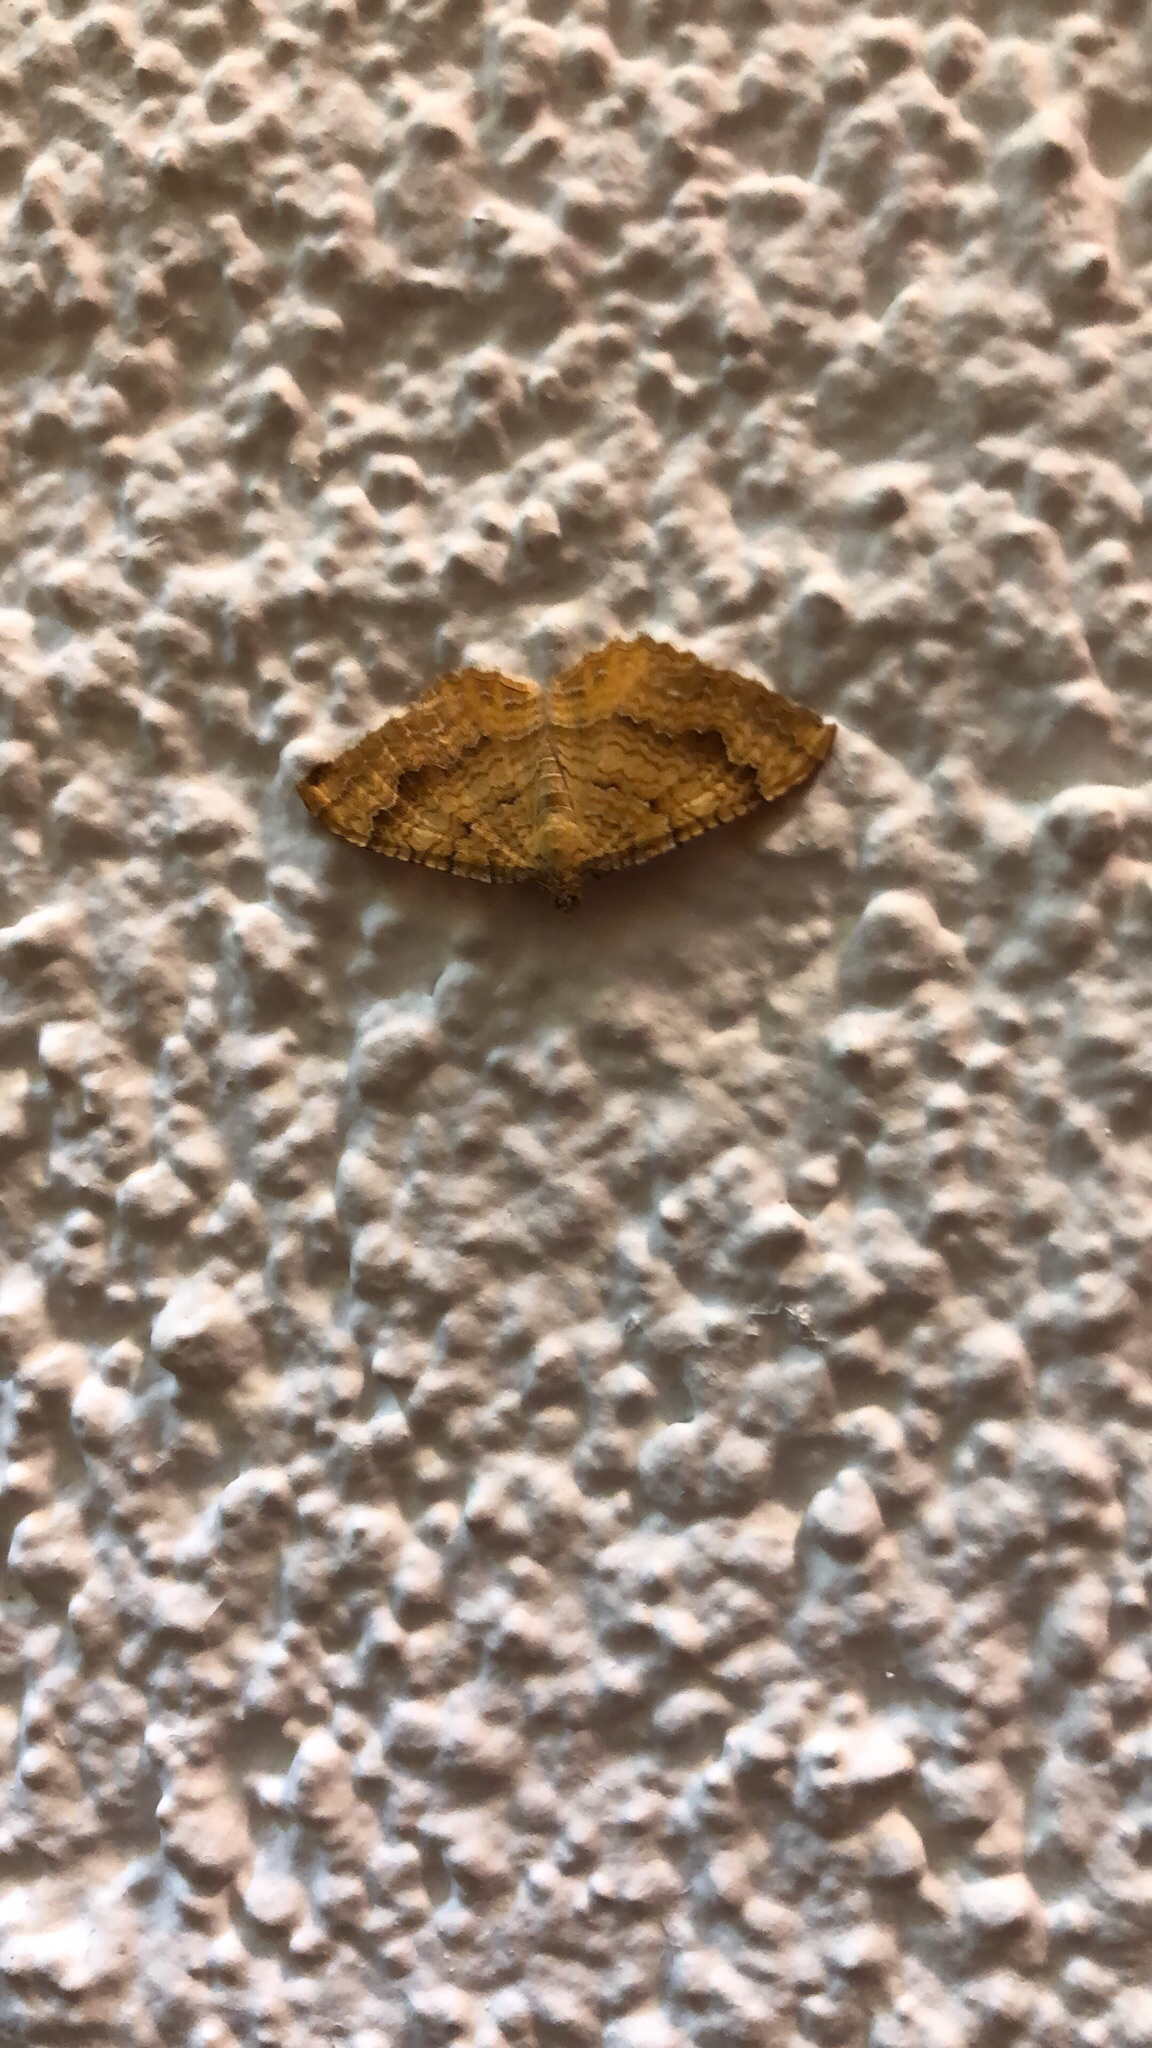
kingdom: Animalia
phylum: Arthropoda
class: Insecta
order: Lepidoptera
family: Geometridae
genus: Camptogramma
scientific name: Camptogramma bilineata
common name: Yellow shell
